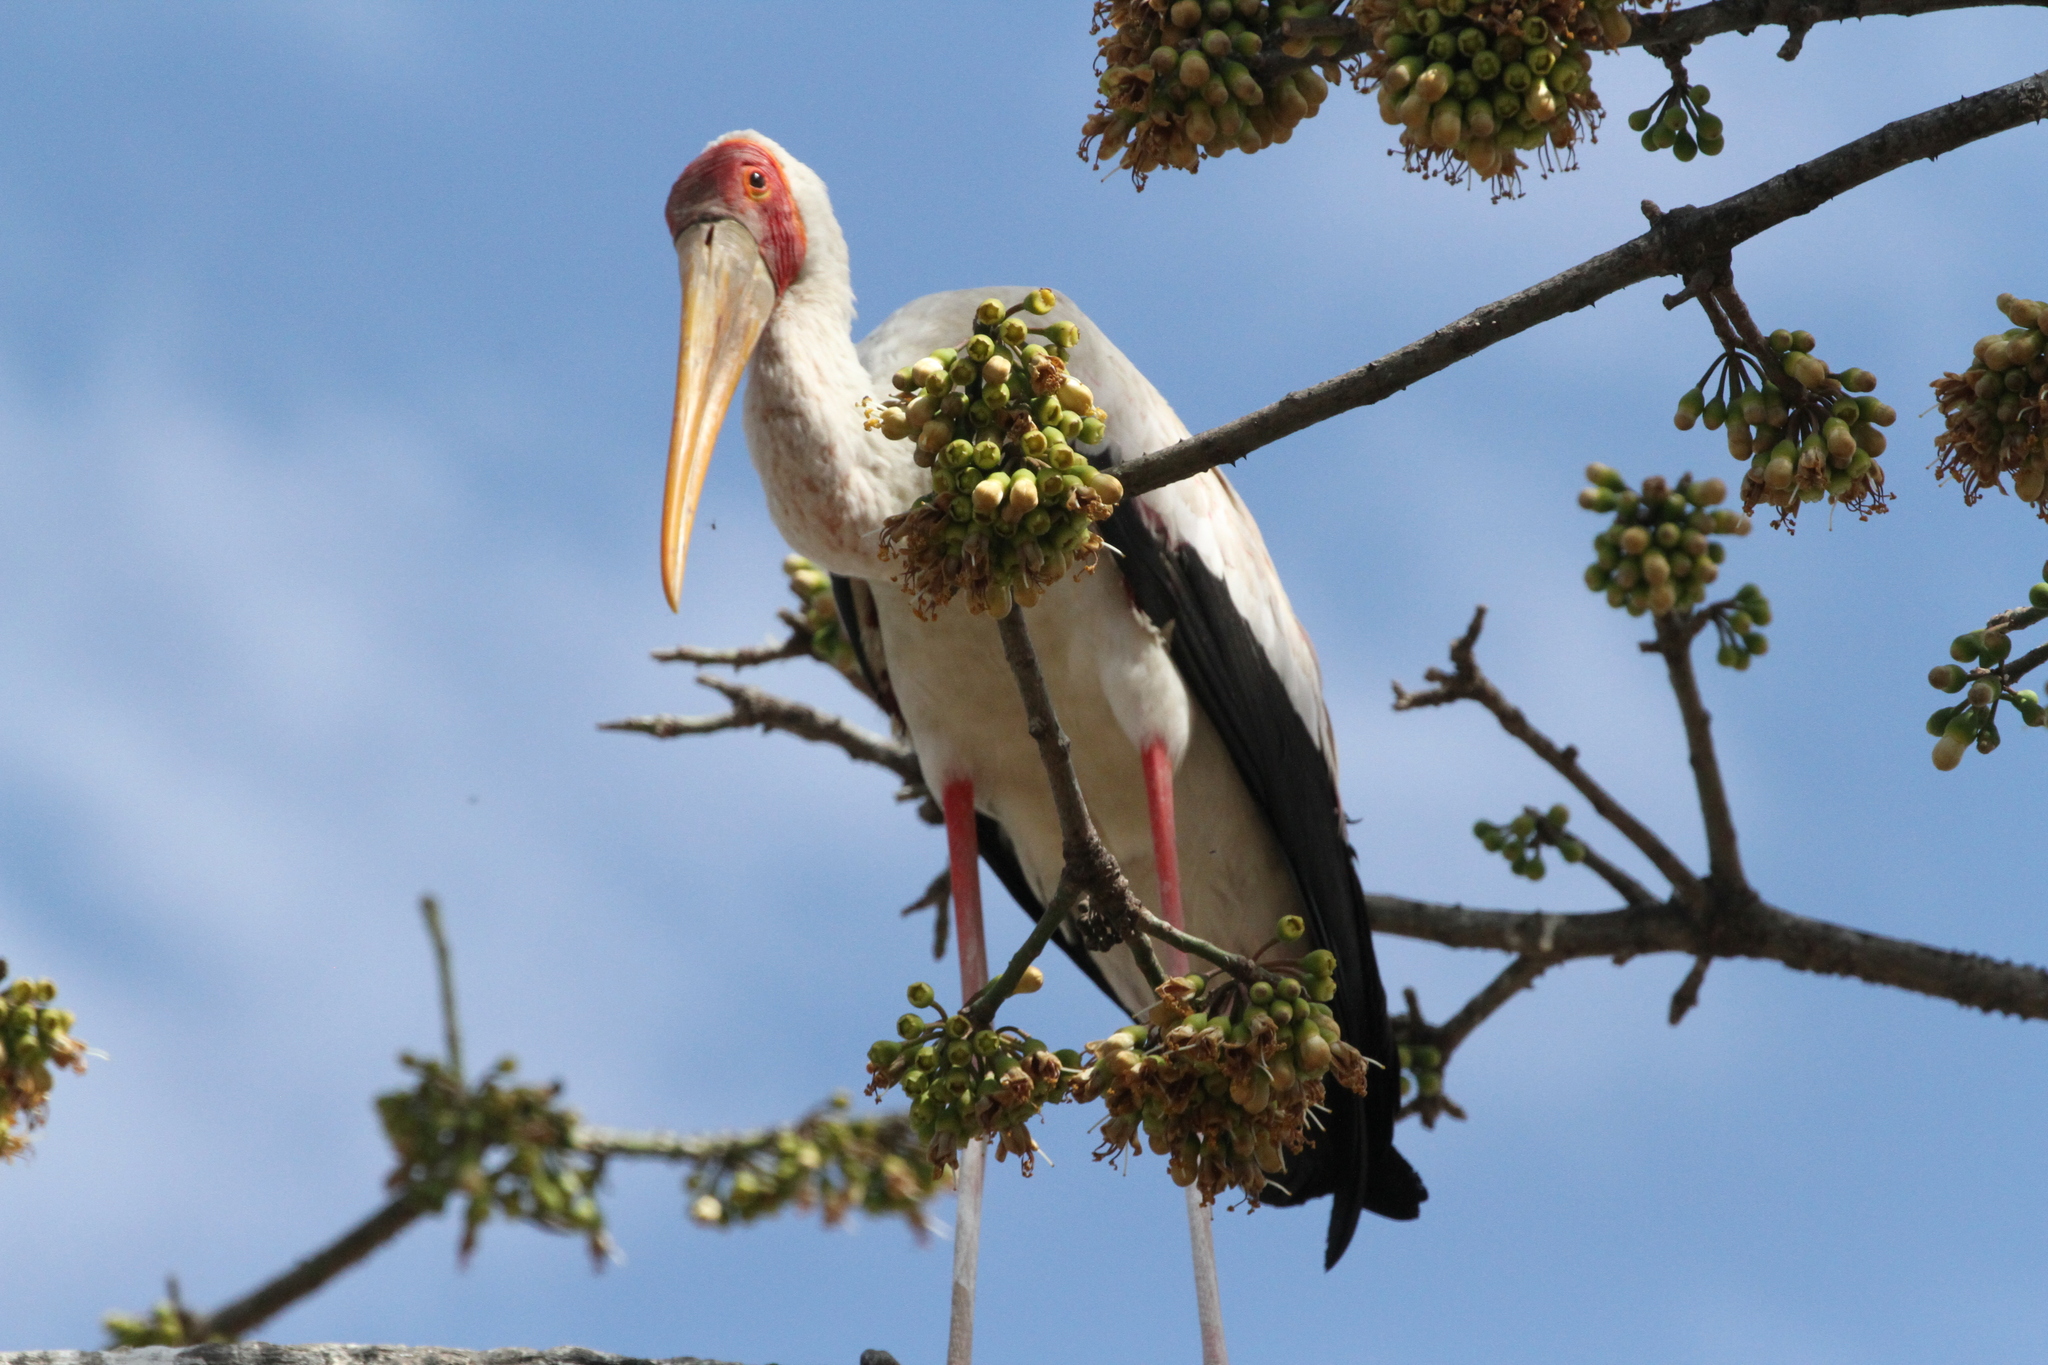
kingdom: Animalia
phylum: Chordata
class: Aves
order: Ciconiiformes
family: Ciconiidae
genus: Mycteria
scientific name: Mycteria ibis
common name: Yellow-billed stork
